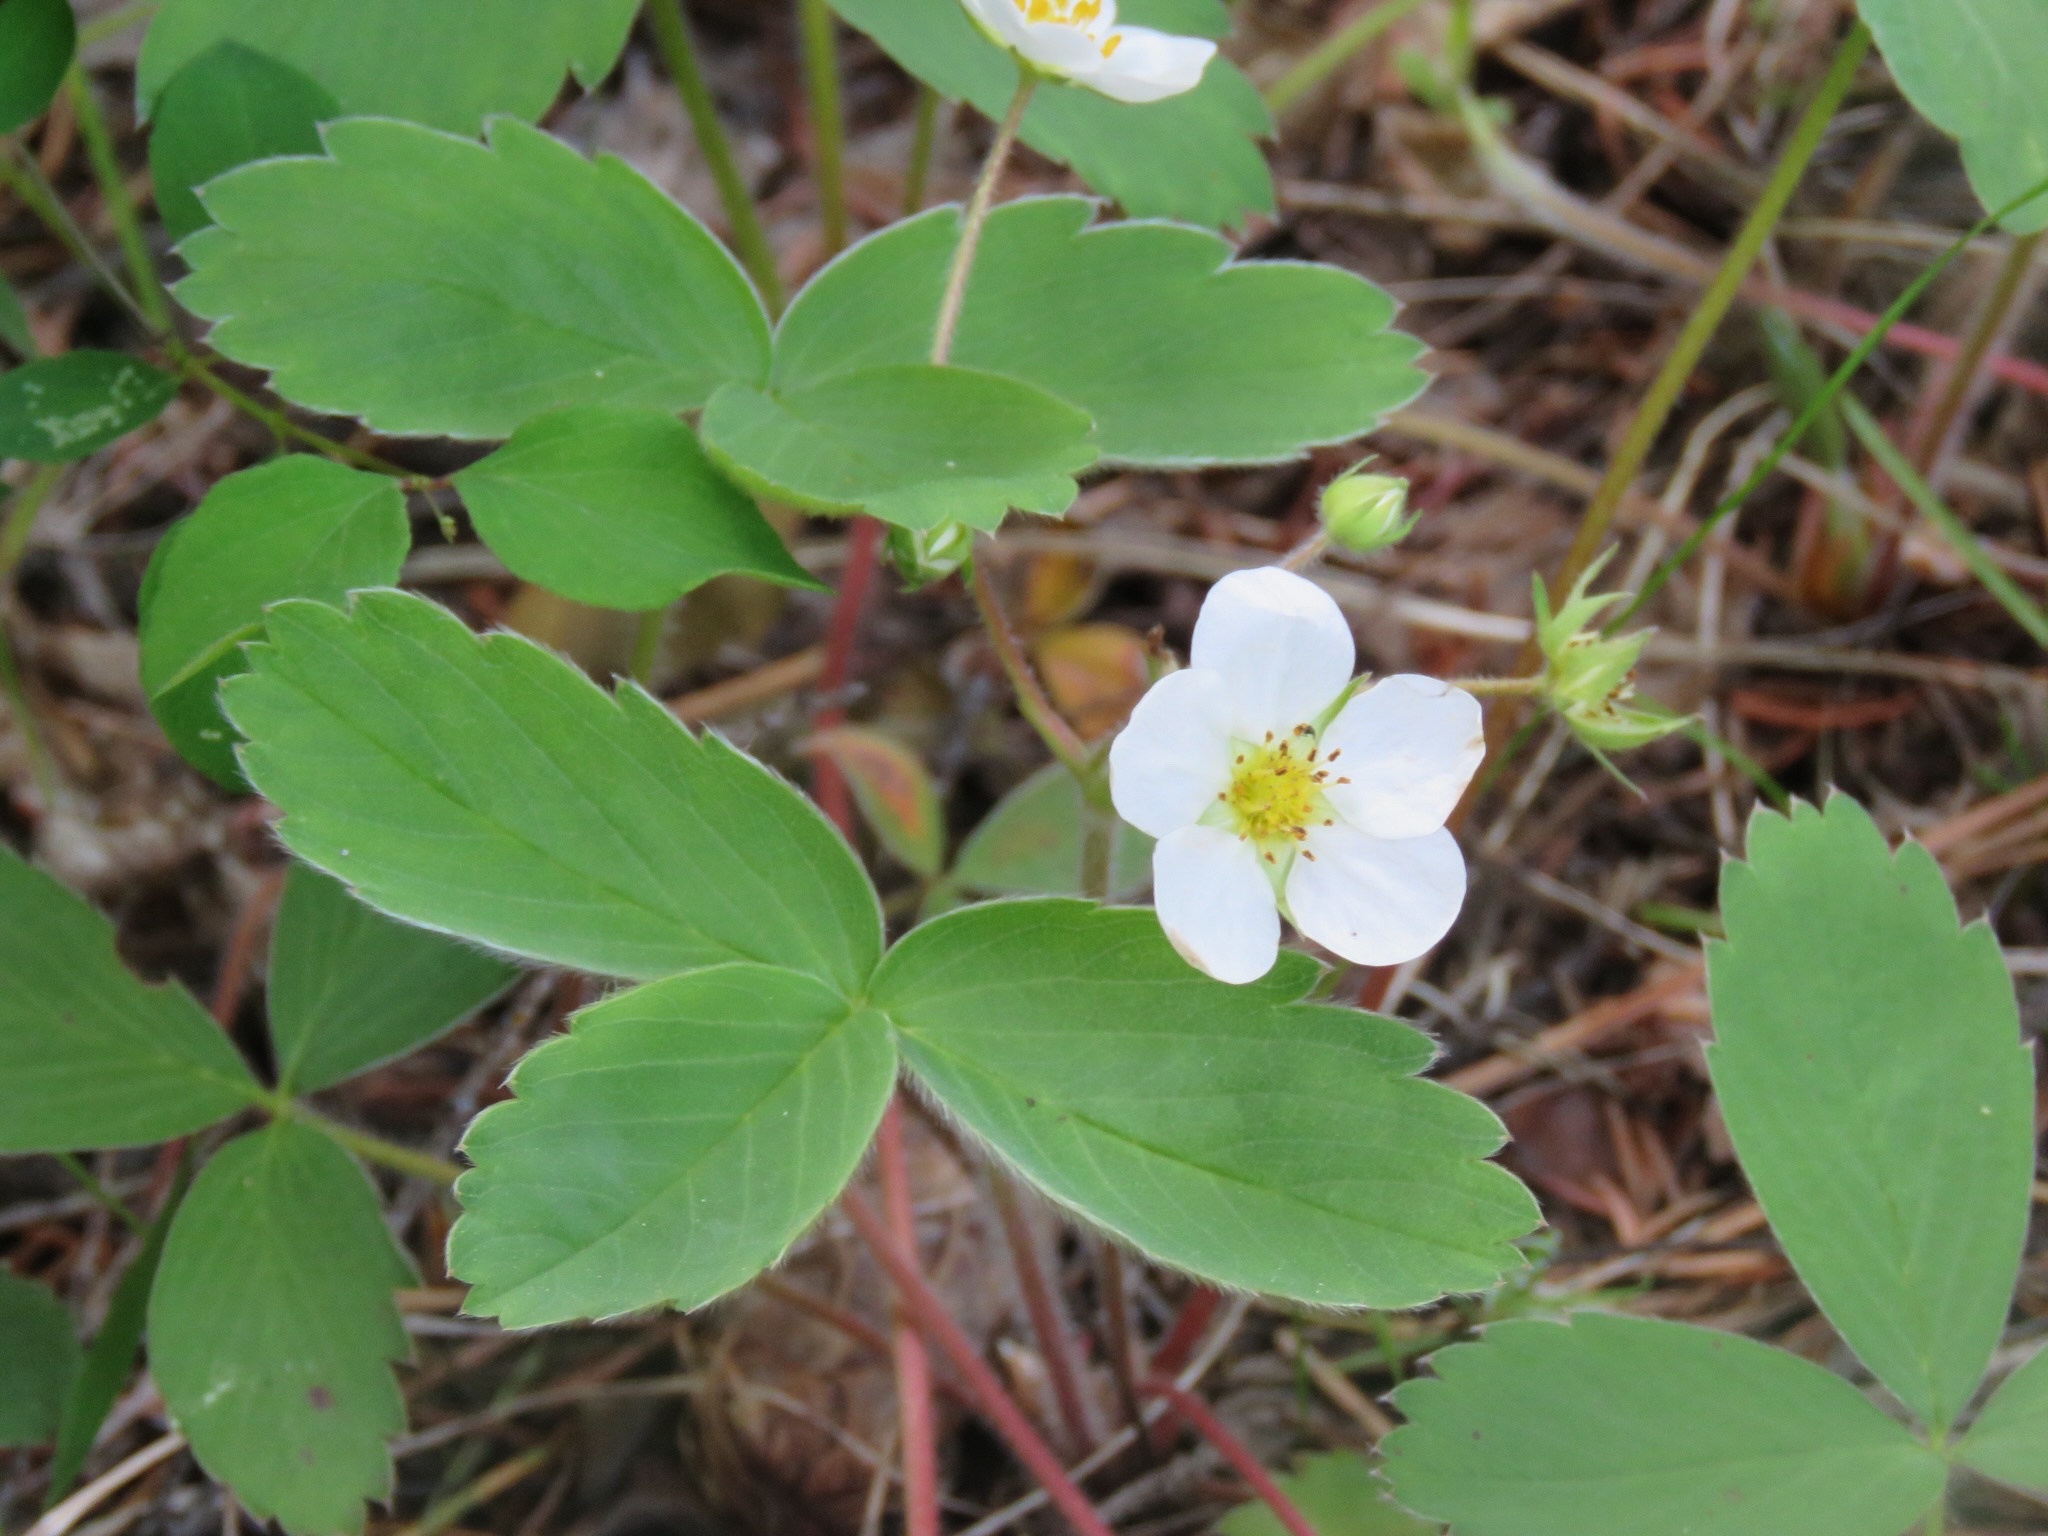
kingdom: Plantae
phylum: Tracheophyta
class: Magnoliopsida
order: Rosales
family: Rosaceae
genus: Fragaria
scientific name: Fragaria virginiana
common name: Thickleaved wild strawberry
